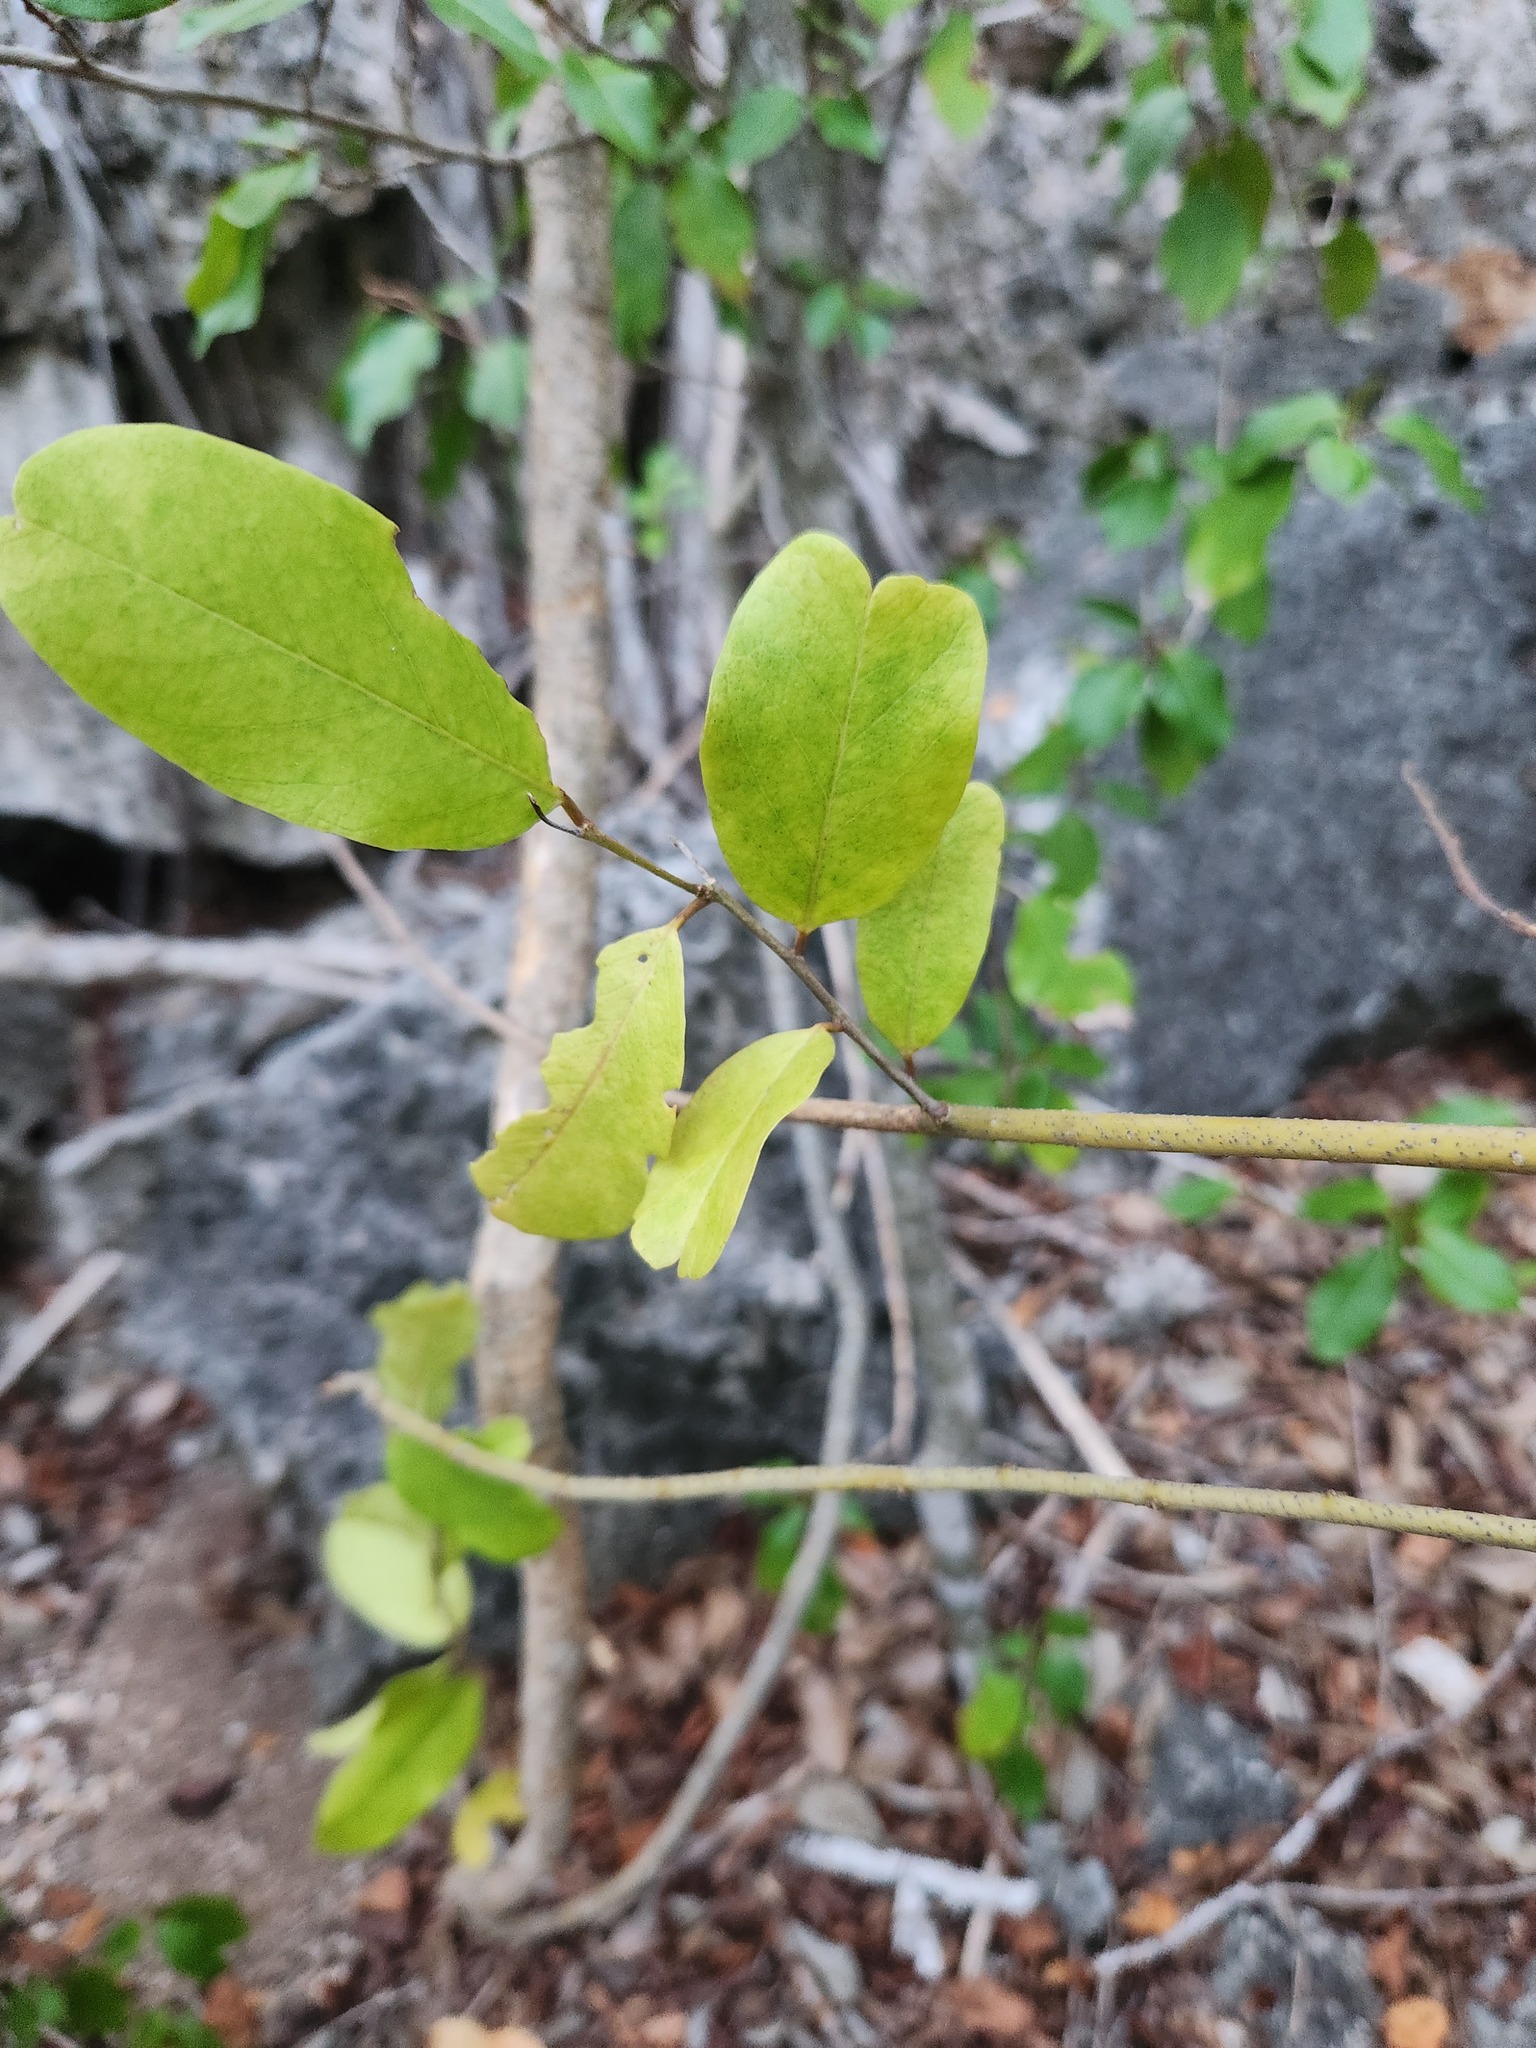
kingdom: Plantae
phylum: Tracheophyta
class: Magnoliopsida
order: Brassicales
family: Capparaceae
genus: Cynophalla
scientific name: Cynophalla flexuosa
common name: Capertree
